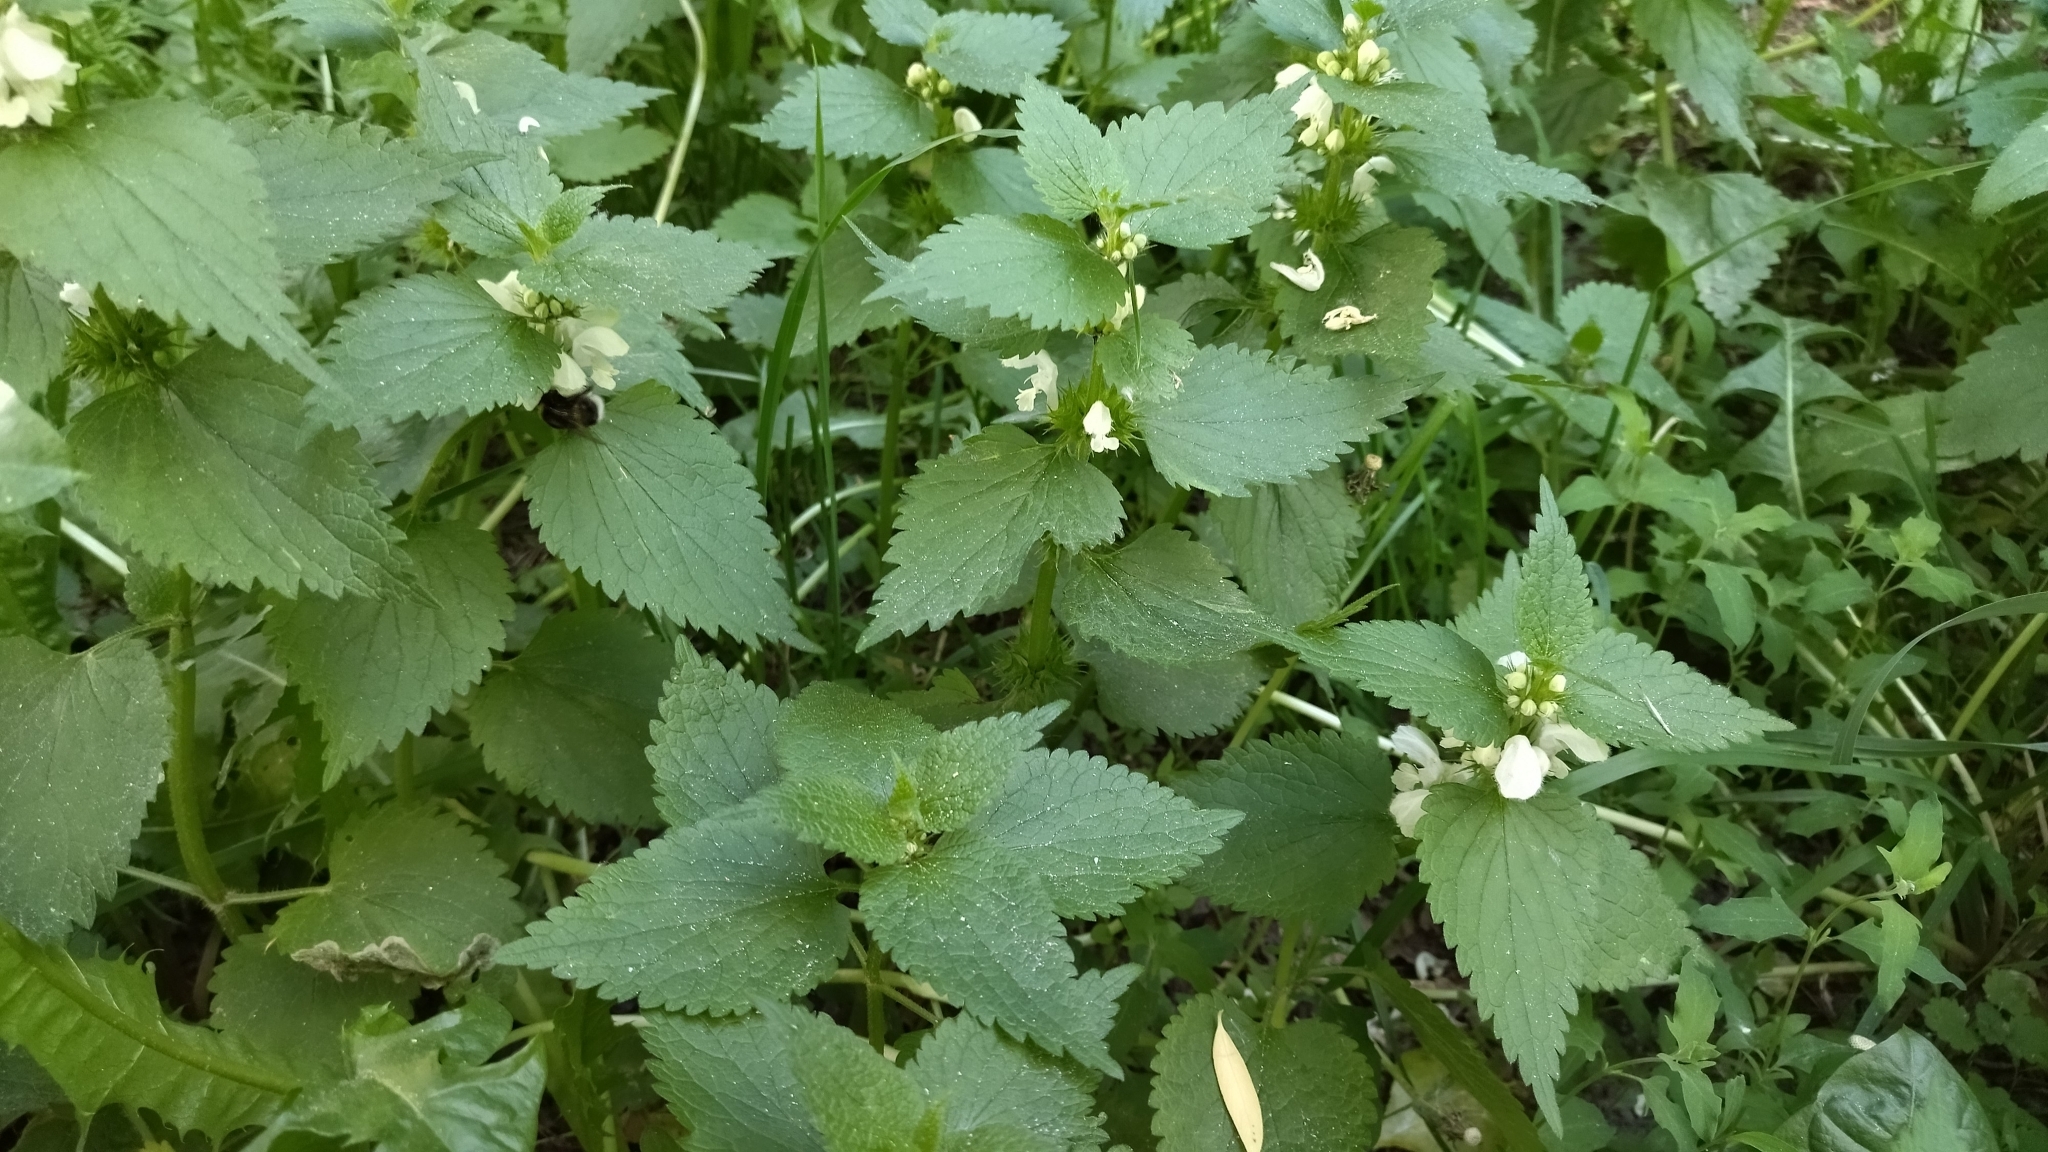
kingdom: Plantae
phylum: Tracheophyta
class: Magnoliopsida
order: Lamiales
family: Lamiaceae
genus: Lamium
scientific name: Lamium album
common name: White dead-nettle
